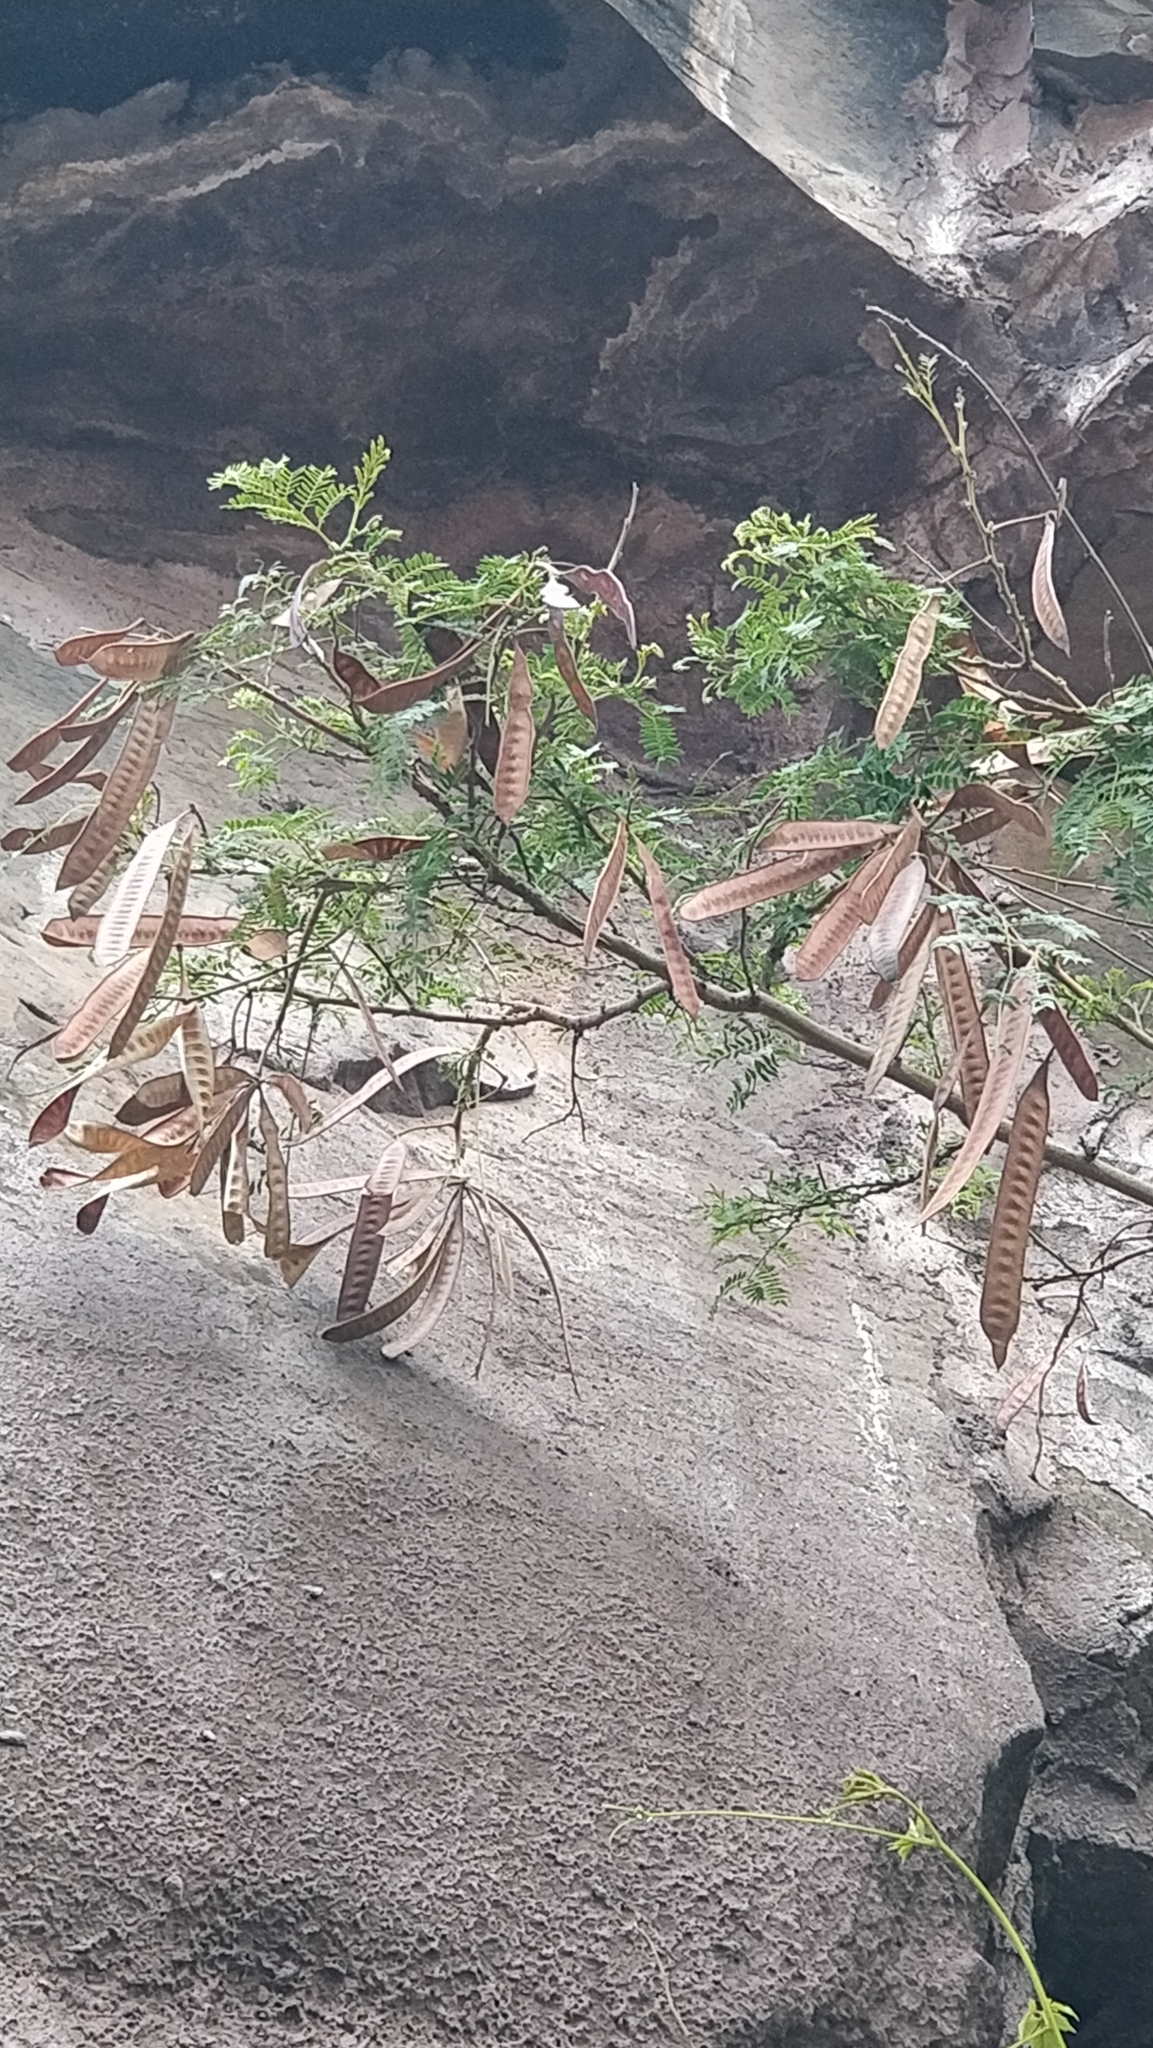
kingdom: Plantae
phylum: Tracheophyta
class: Magnoliopsida
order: Fabales
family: Fabaceae
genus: Leucaena
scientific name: Leucaena leucocephala
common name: White leadtree
